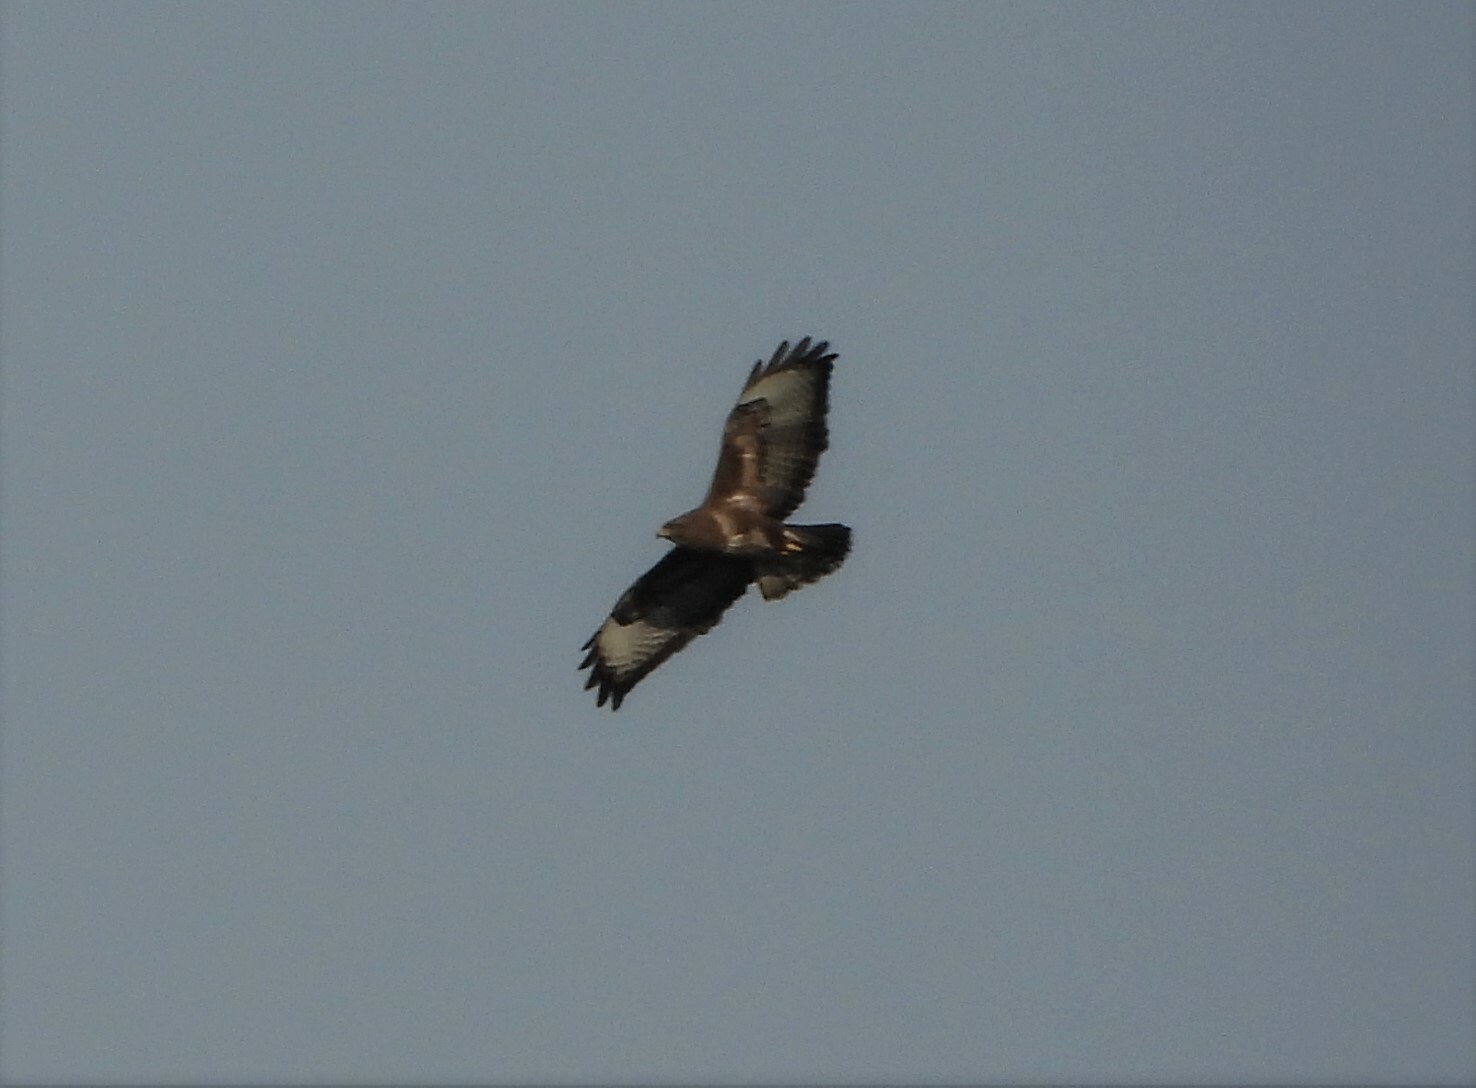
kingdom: Animalia
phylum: Chordata
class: Aves
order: Accipitriformes
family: Accipitridae
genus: Buteo
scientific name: Buteo buteo
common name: Common buzzard
